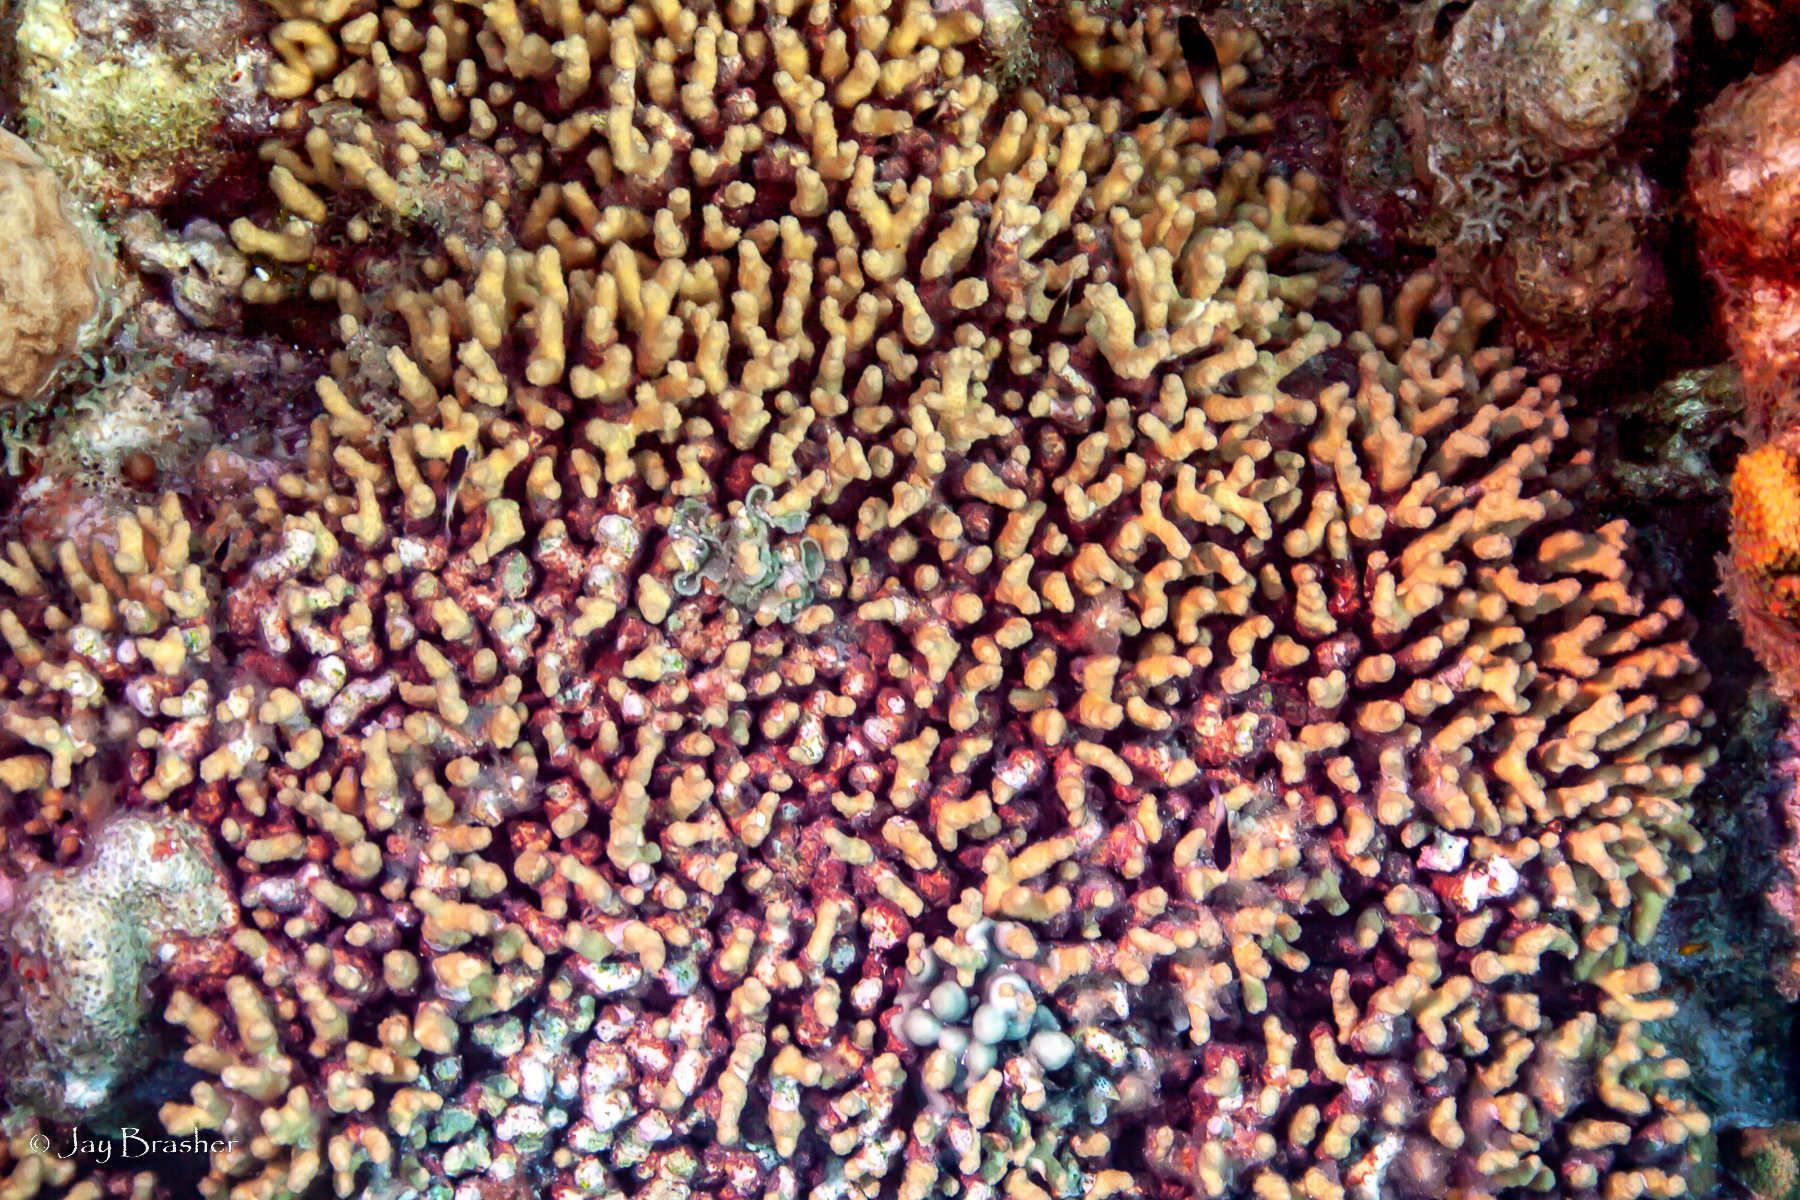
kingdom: Animalia
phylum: Cnidaria
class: Anthozoa
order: Scleractinia
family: Pocilloporidae
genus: Madracis
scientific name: Madracis auretenra
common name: Yellow pencil coral
